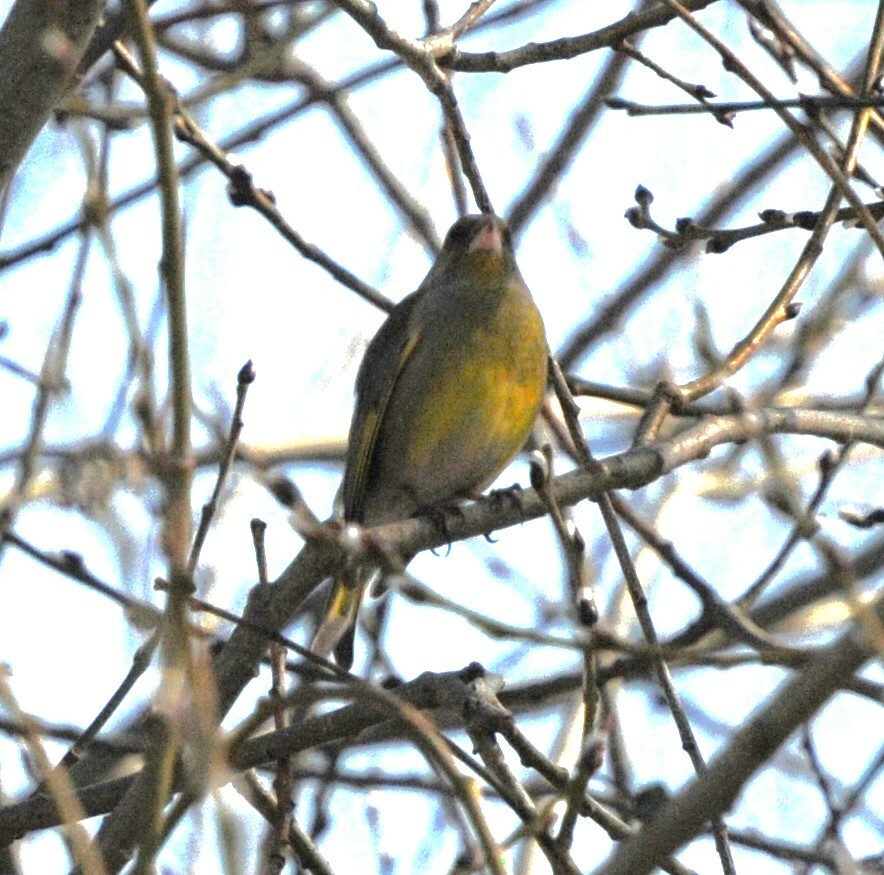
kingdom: Plantae
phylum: Tracheophyta
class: Liliopsida
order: Poales
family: Poaceae
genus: Chloris
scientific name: Chloris chloris
